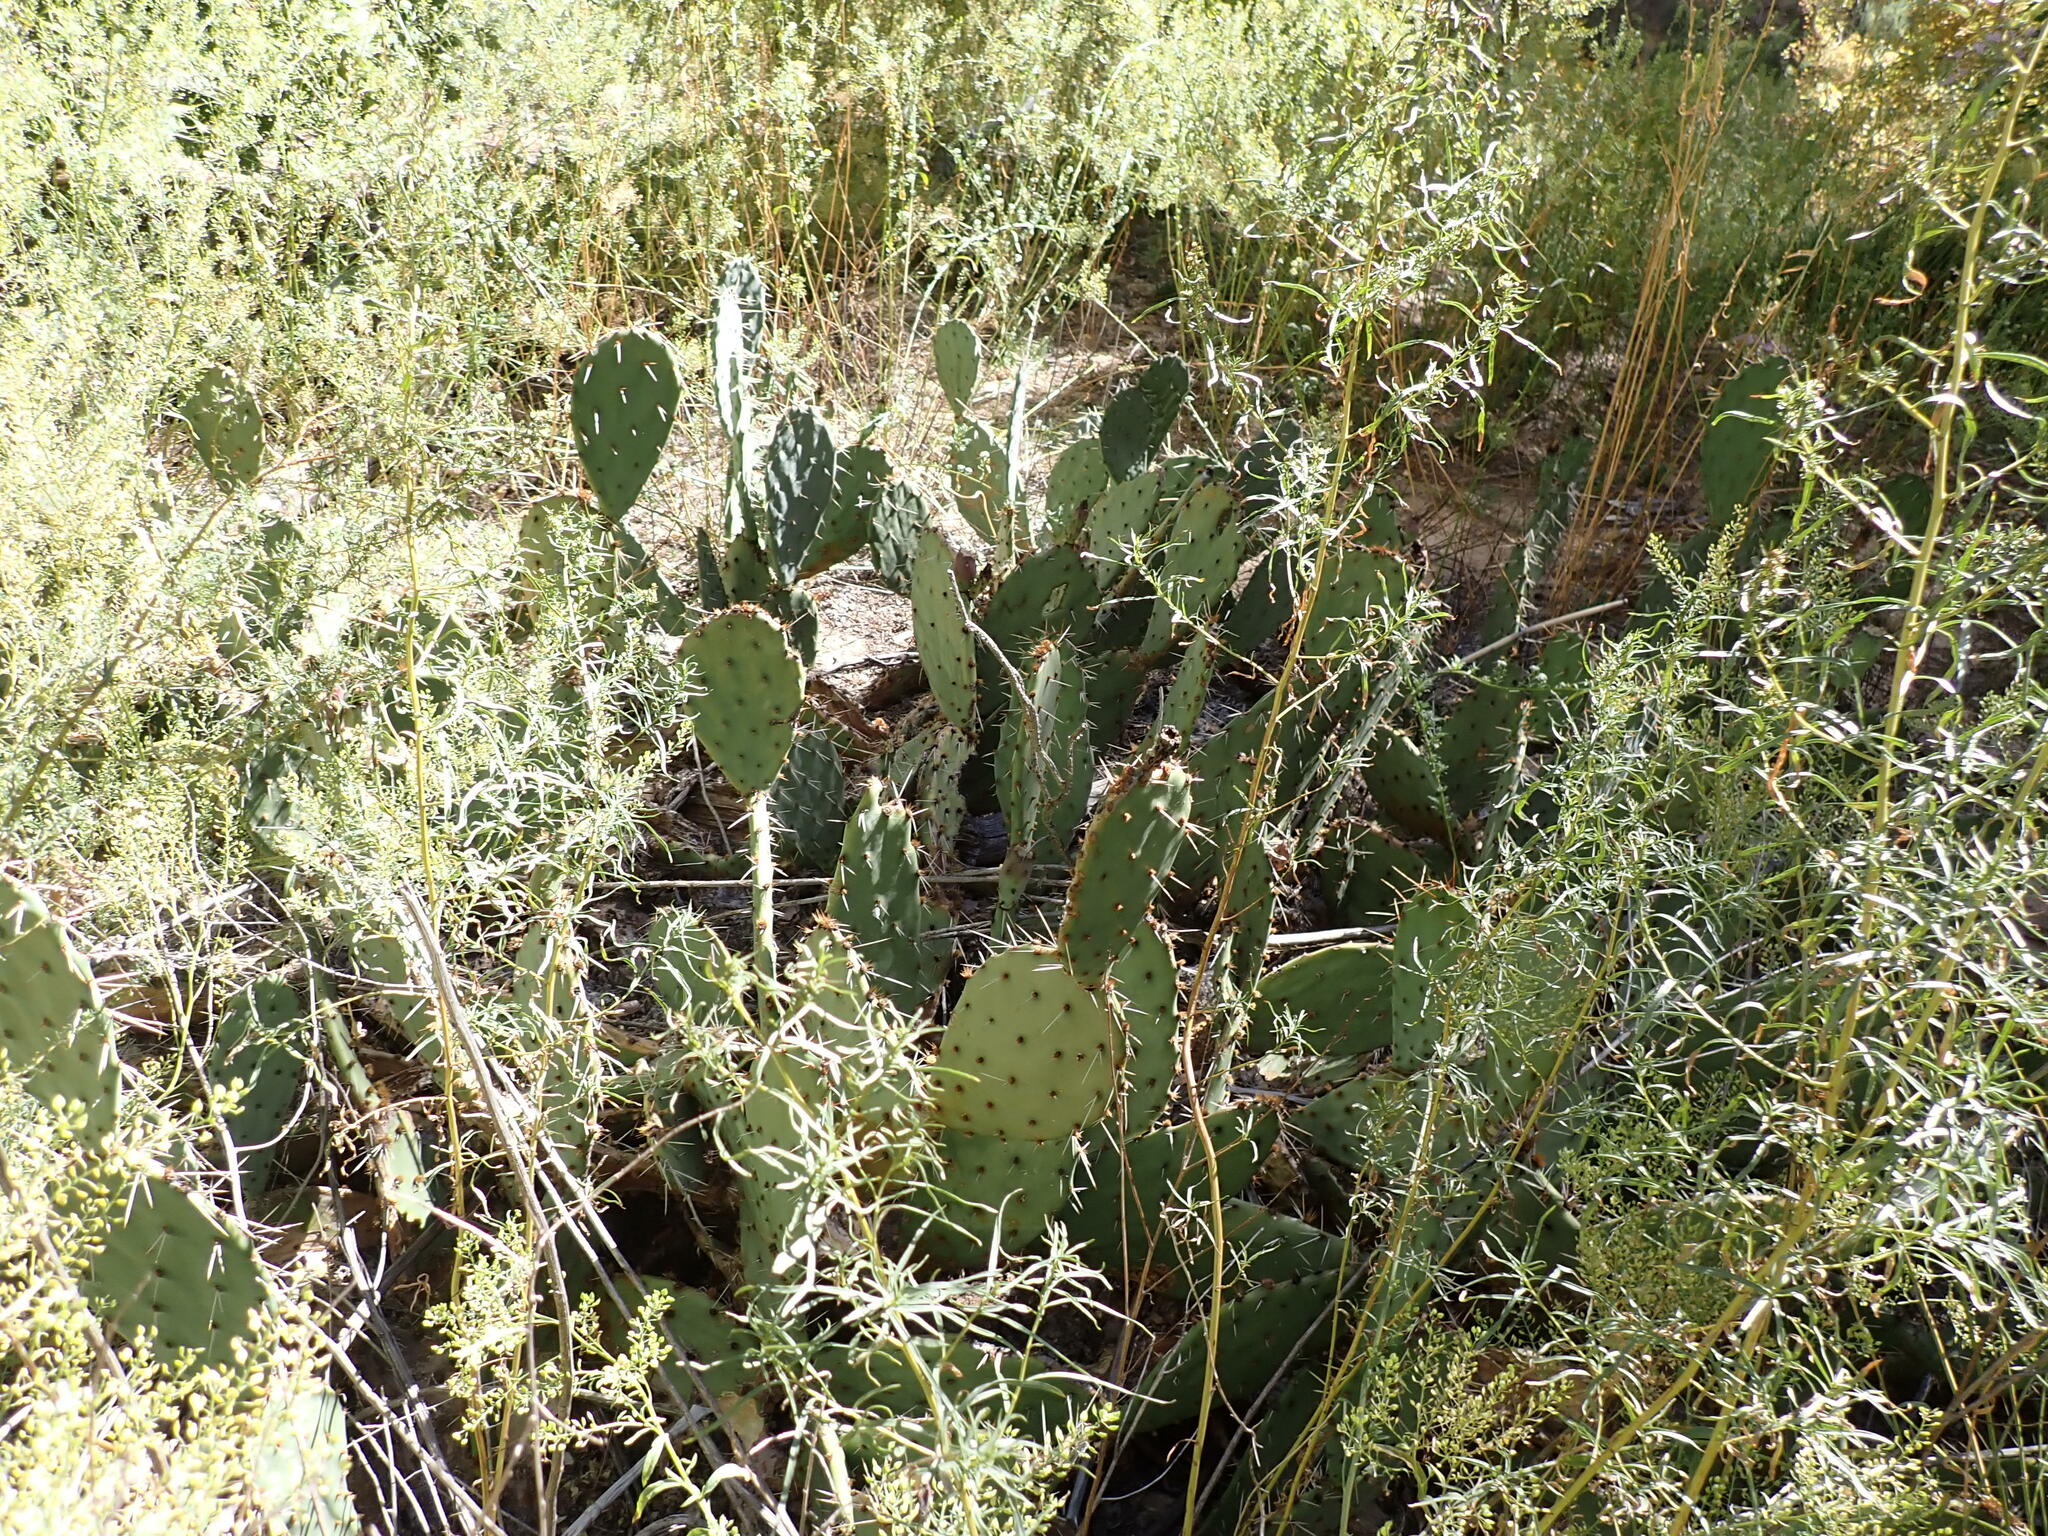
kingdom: Plantae
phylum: Tracheophyta
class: Magnoliopsida
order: Caryophyllales
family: Cactaceae
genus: Opuntia
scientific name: Opuntia phaeacantha
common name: New mexico prickly-pear
